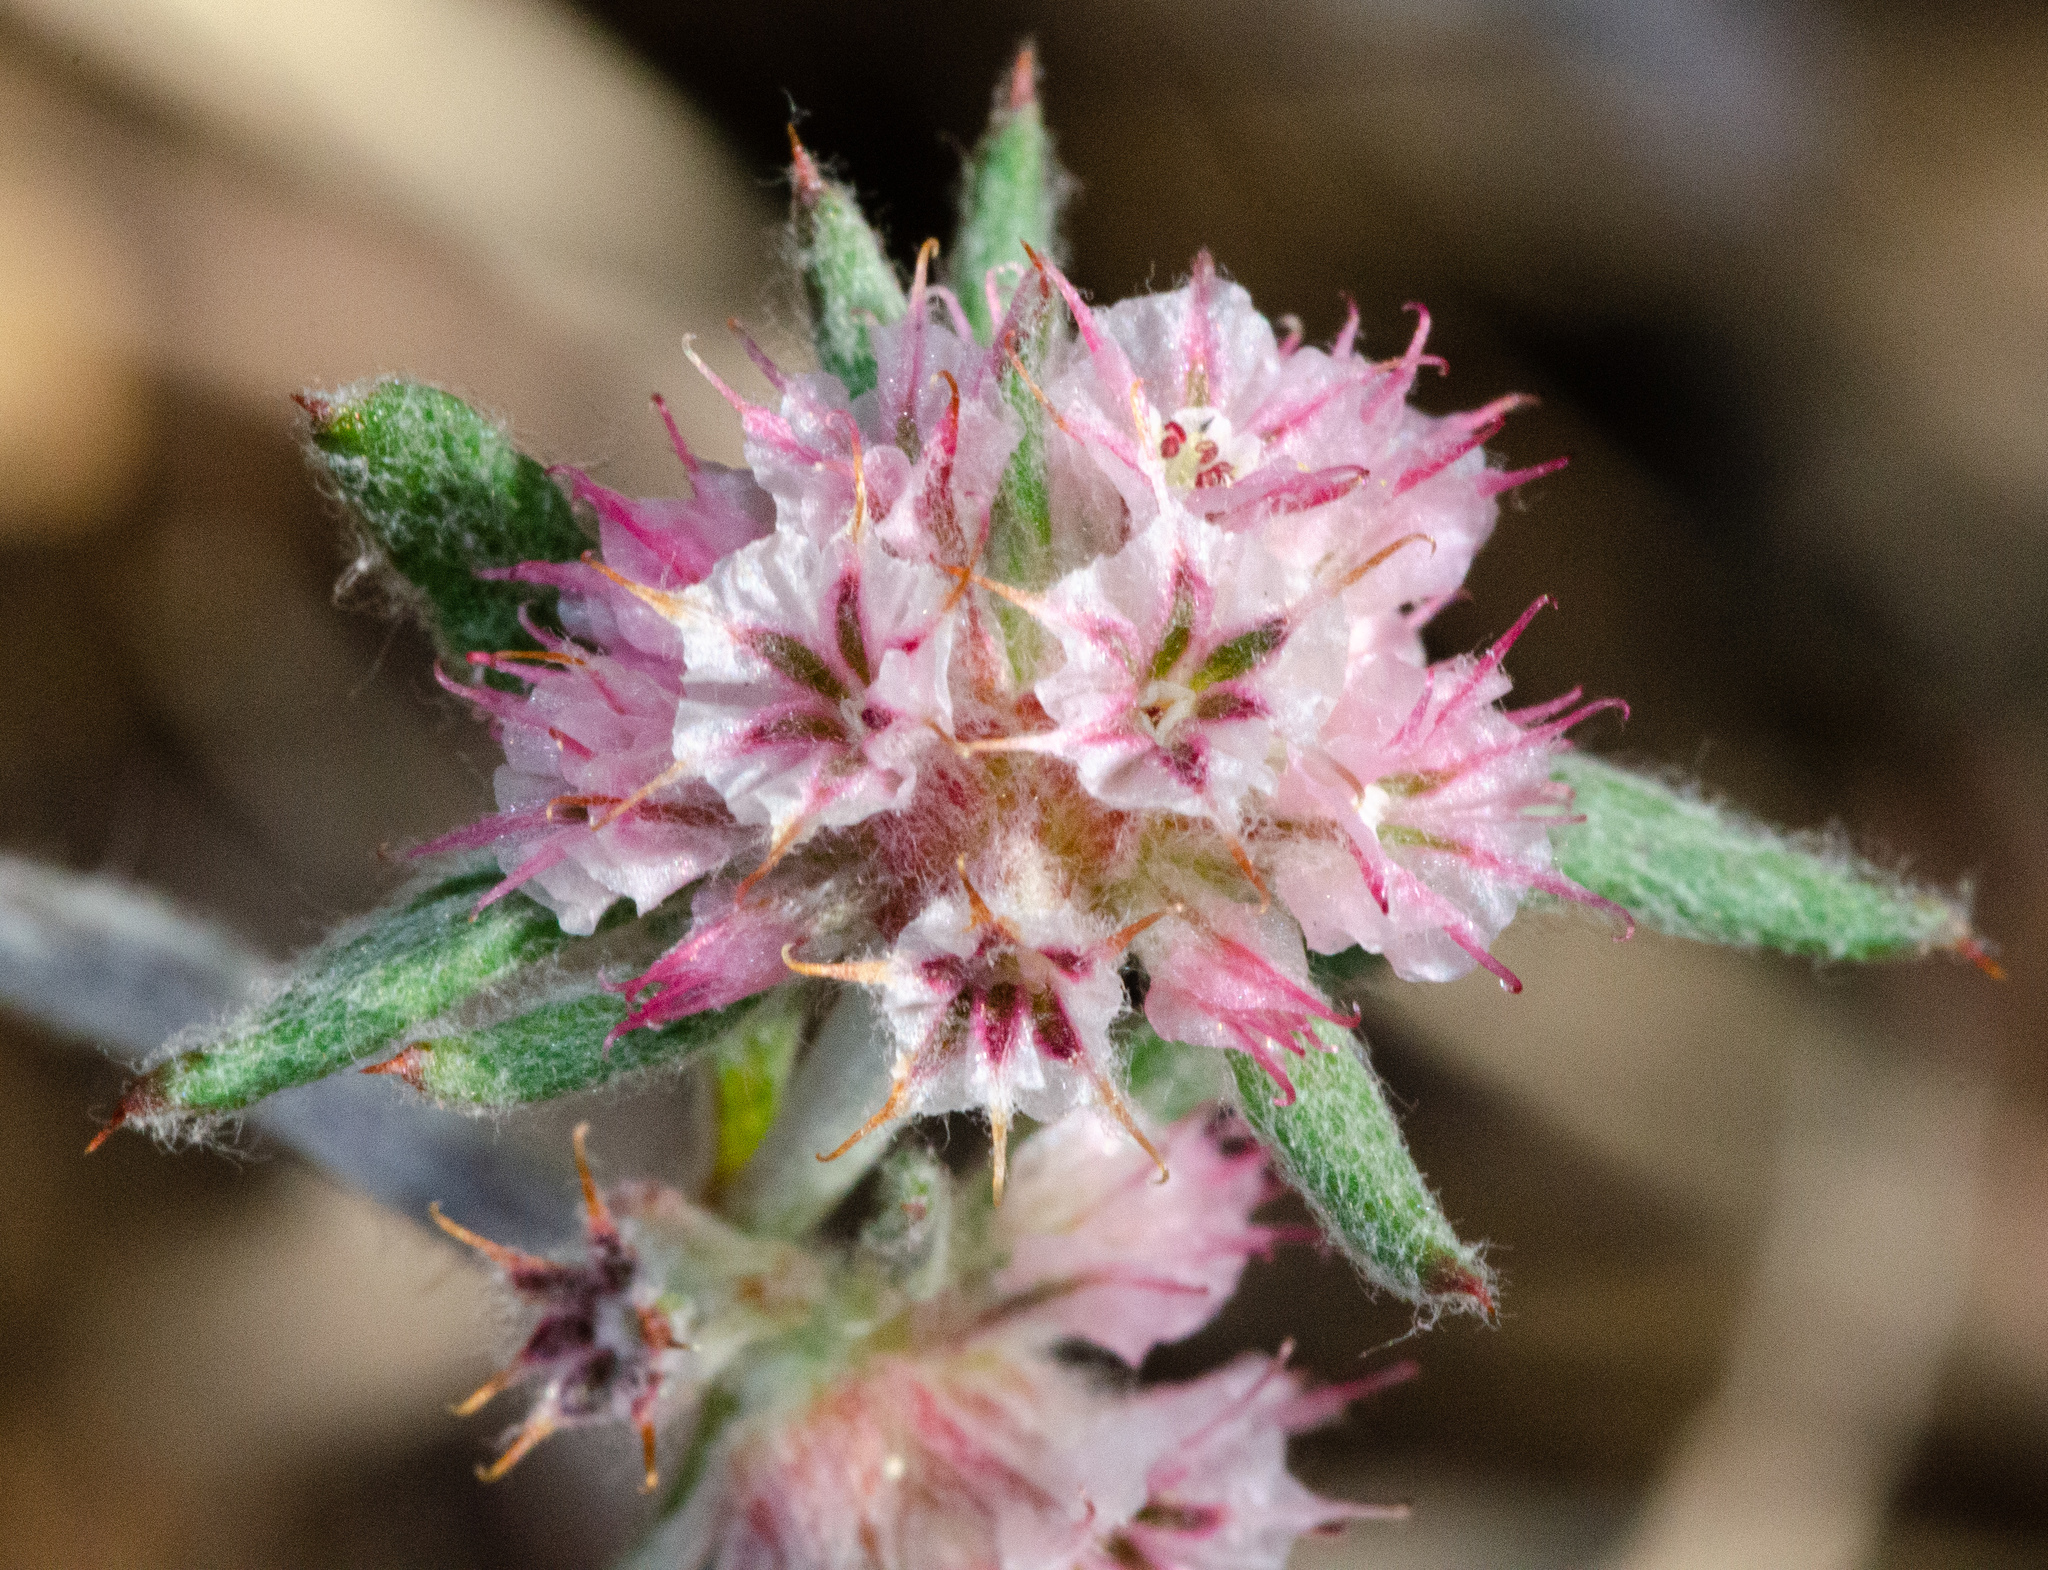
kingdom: Plantae
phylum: Tracheophyta
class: Magnoliopsida
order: Caryophyllales
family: Polygonaceae
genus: Chorizanthe
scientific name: Chorizanthe membranacea
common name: Pink spineflower
